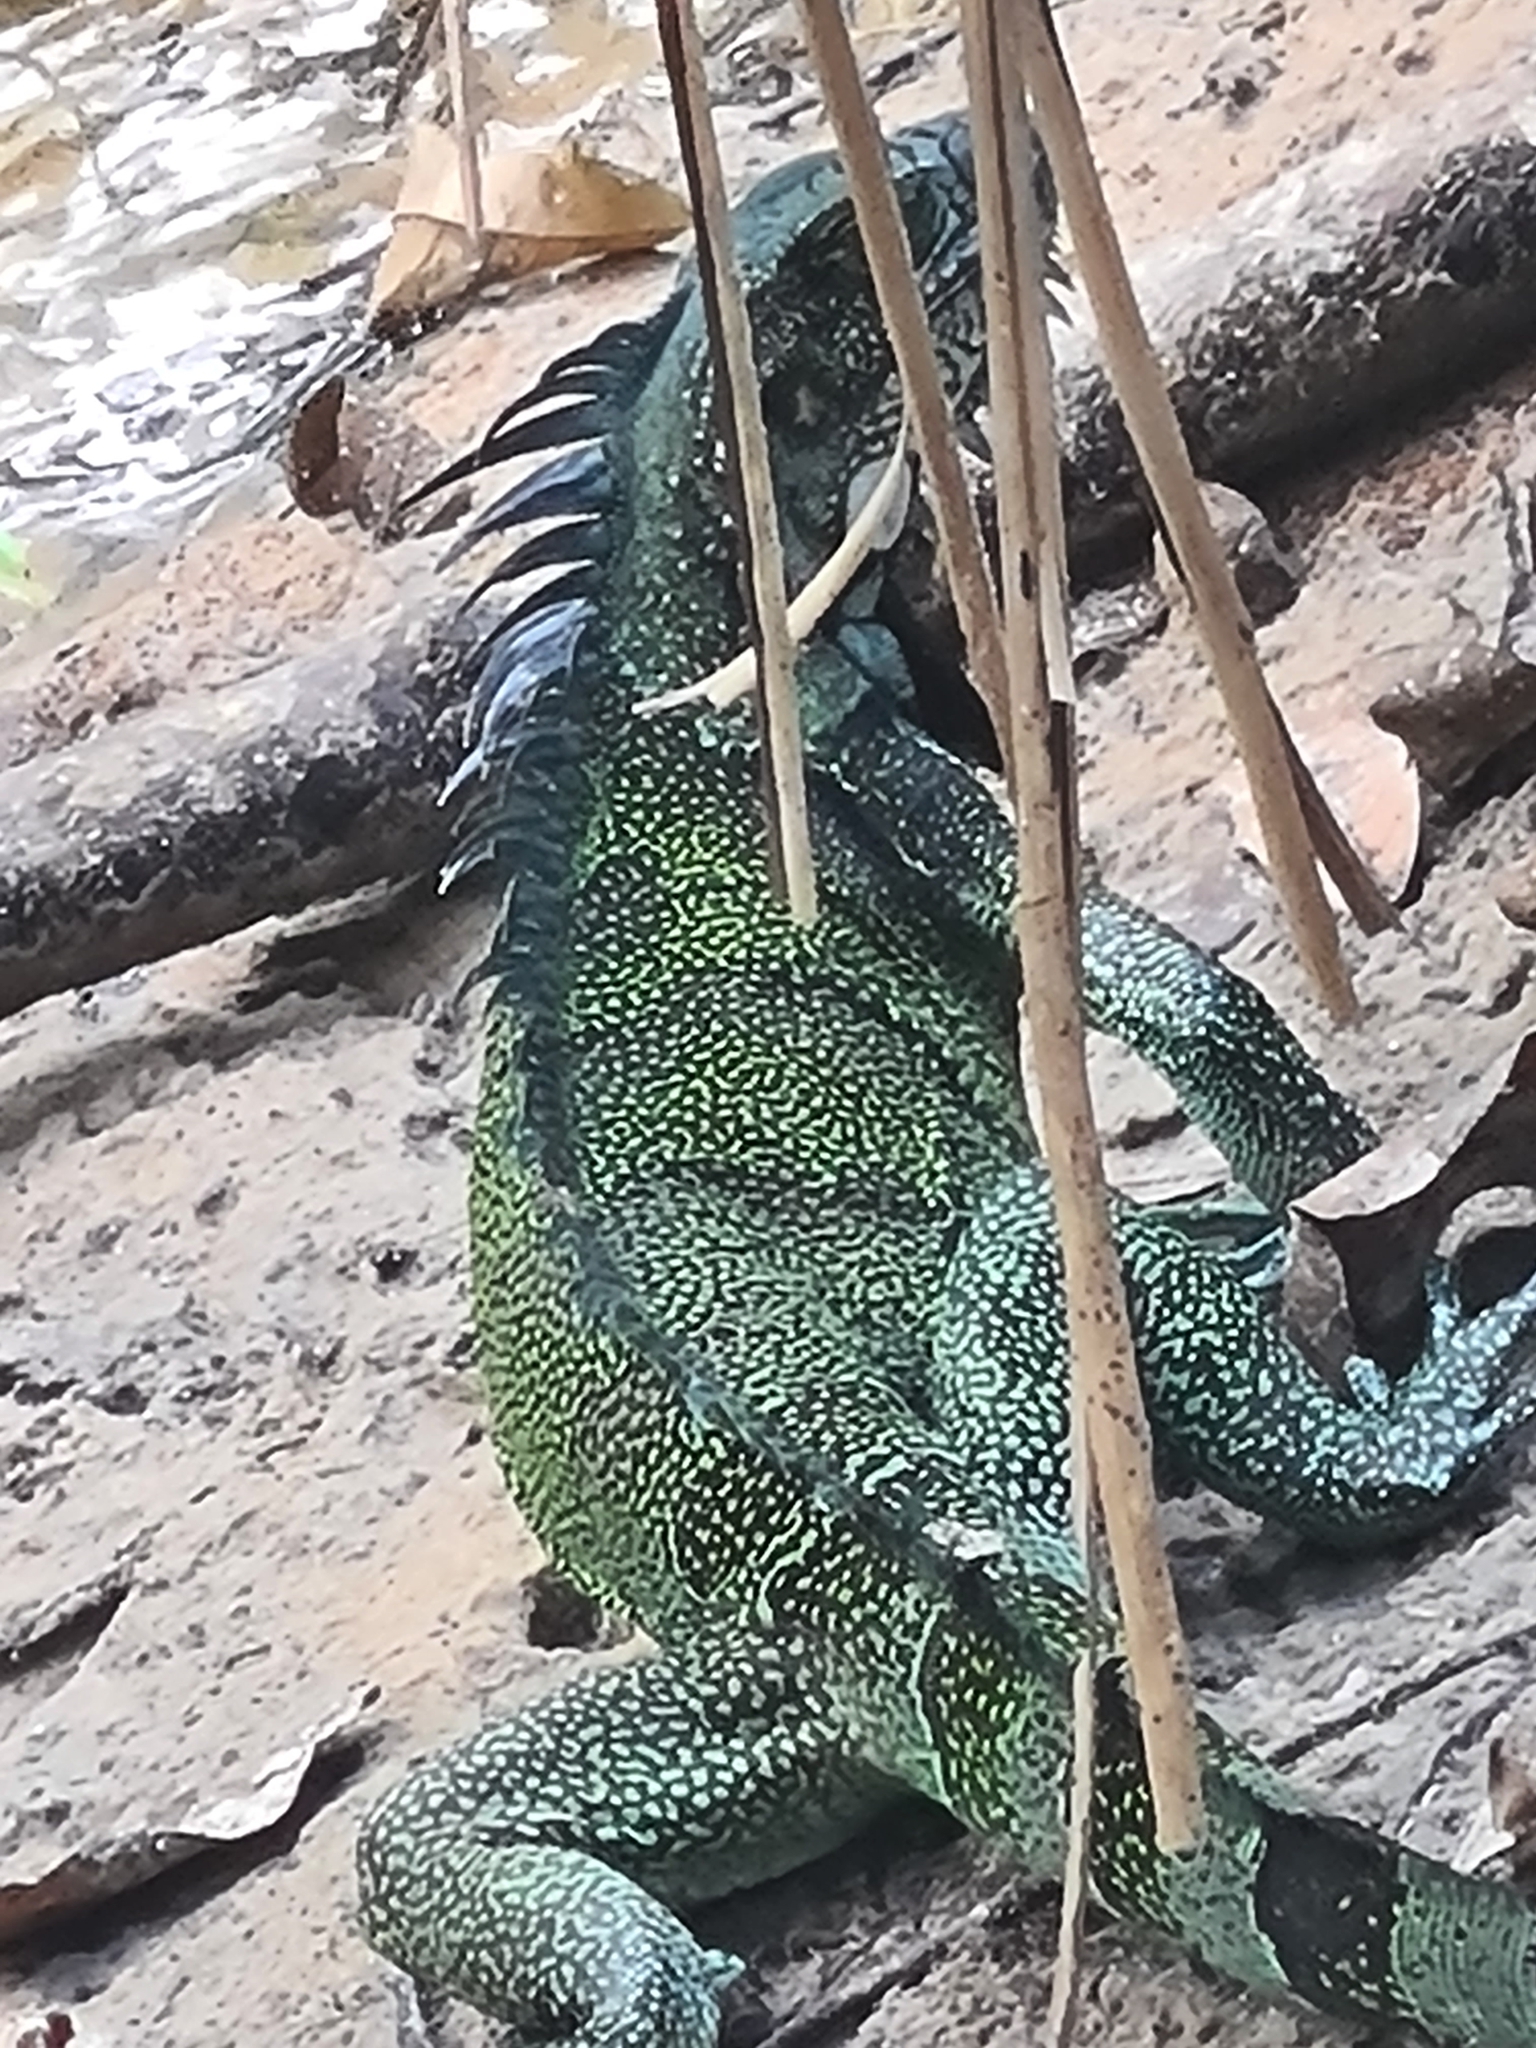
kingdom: Animalia
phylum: Chordata
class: Squamata
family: Iguanidae
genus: Iguana
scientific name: Iguana iguana
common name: Green iguana
